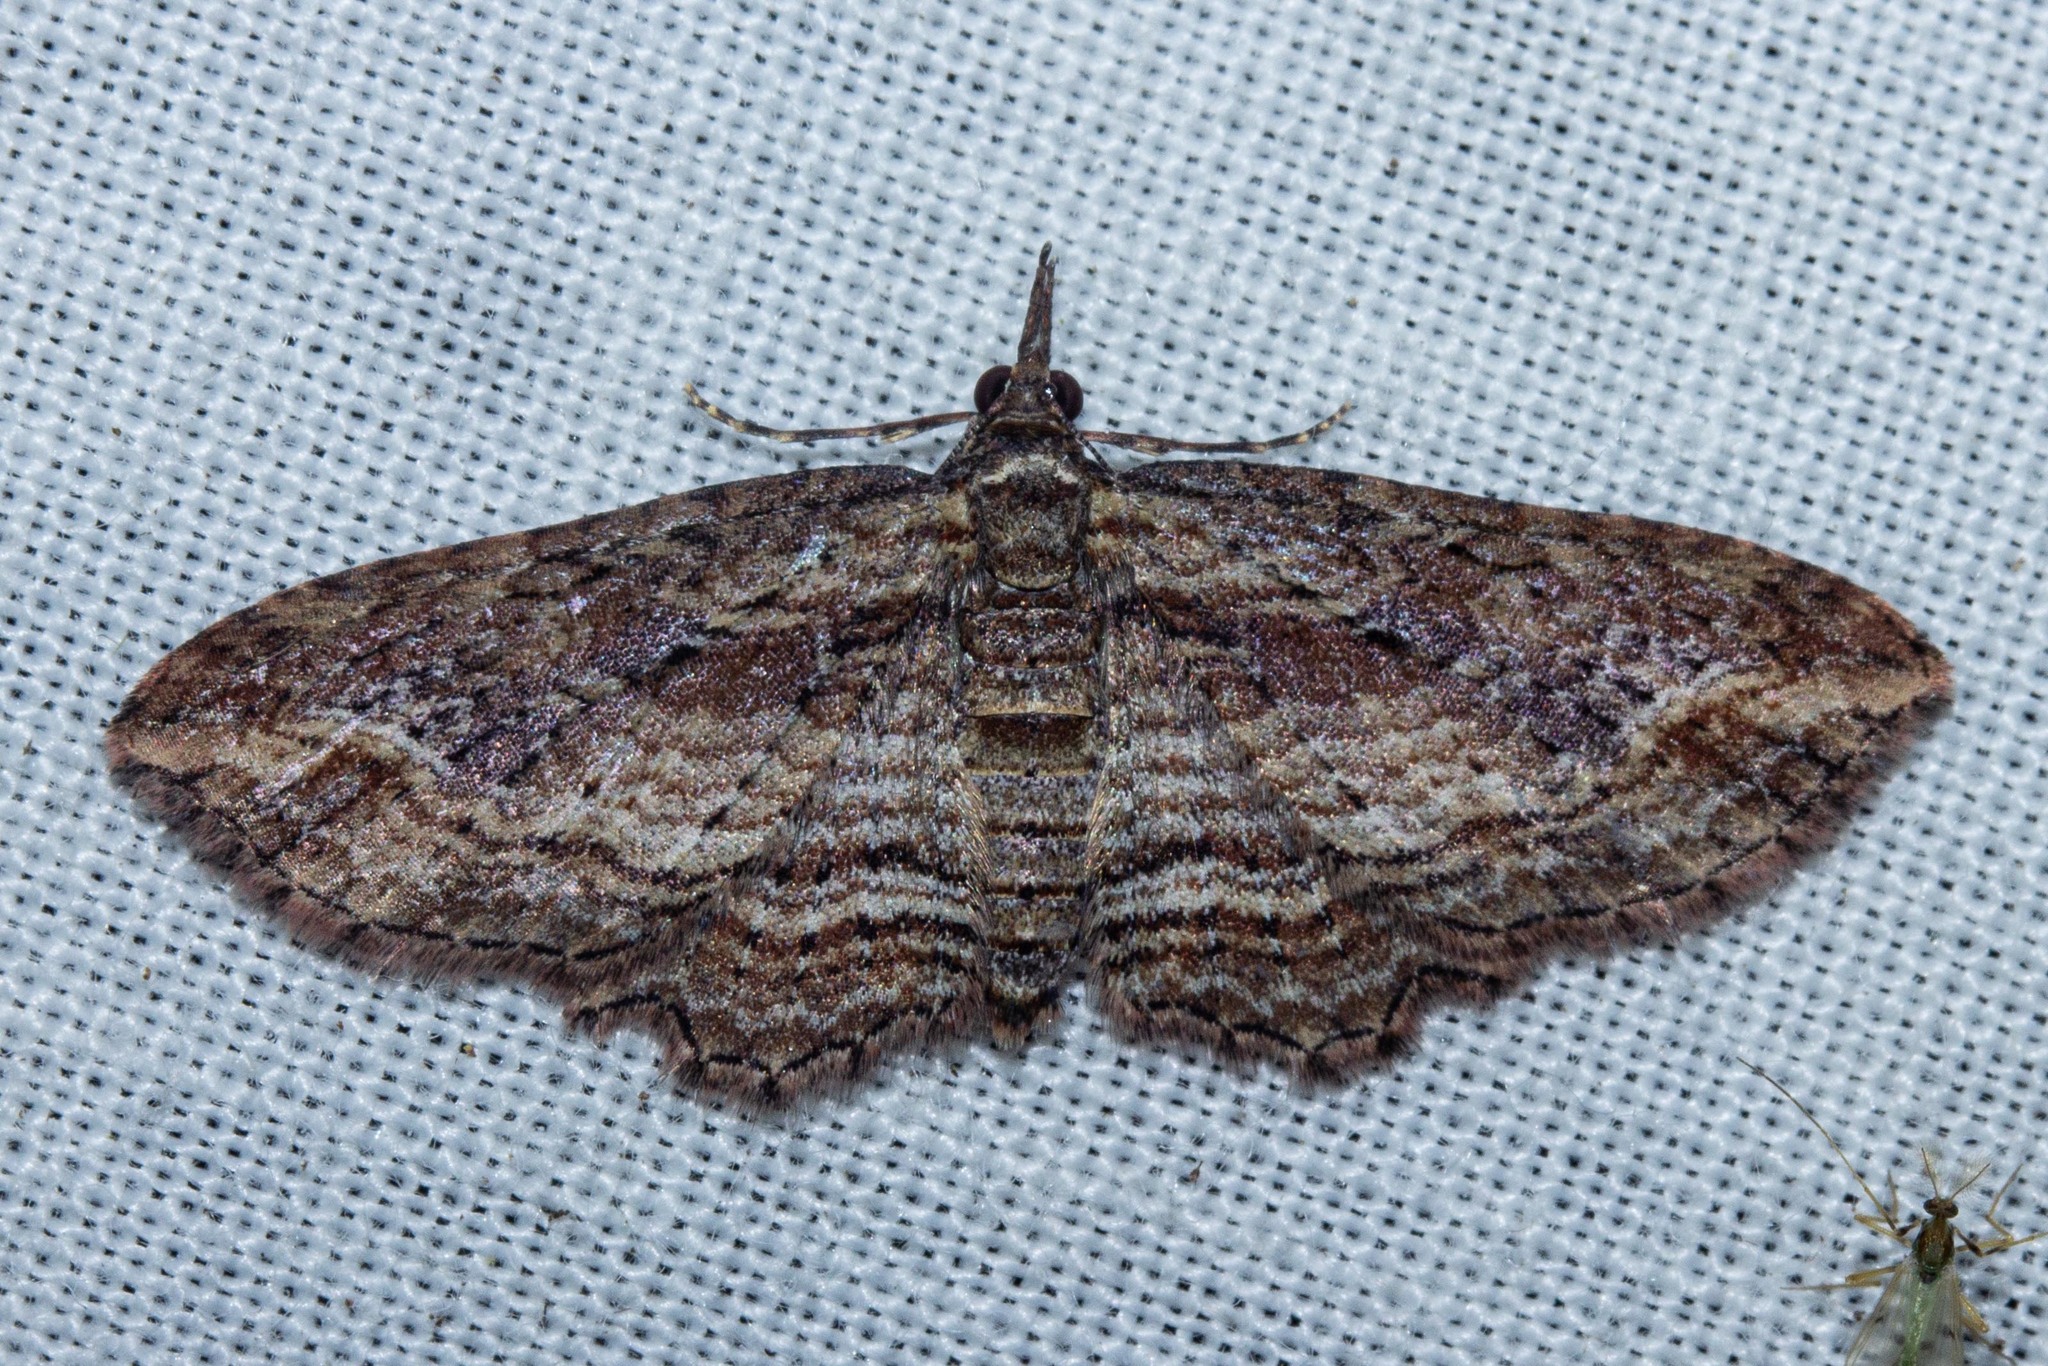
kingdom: Animalia
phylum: Arthropoda
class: Insecta
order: Lepidoptera
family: Geometridae
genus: Chloroclystis
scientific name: Chloroclystis filata
